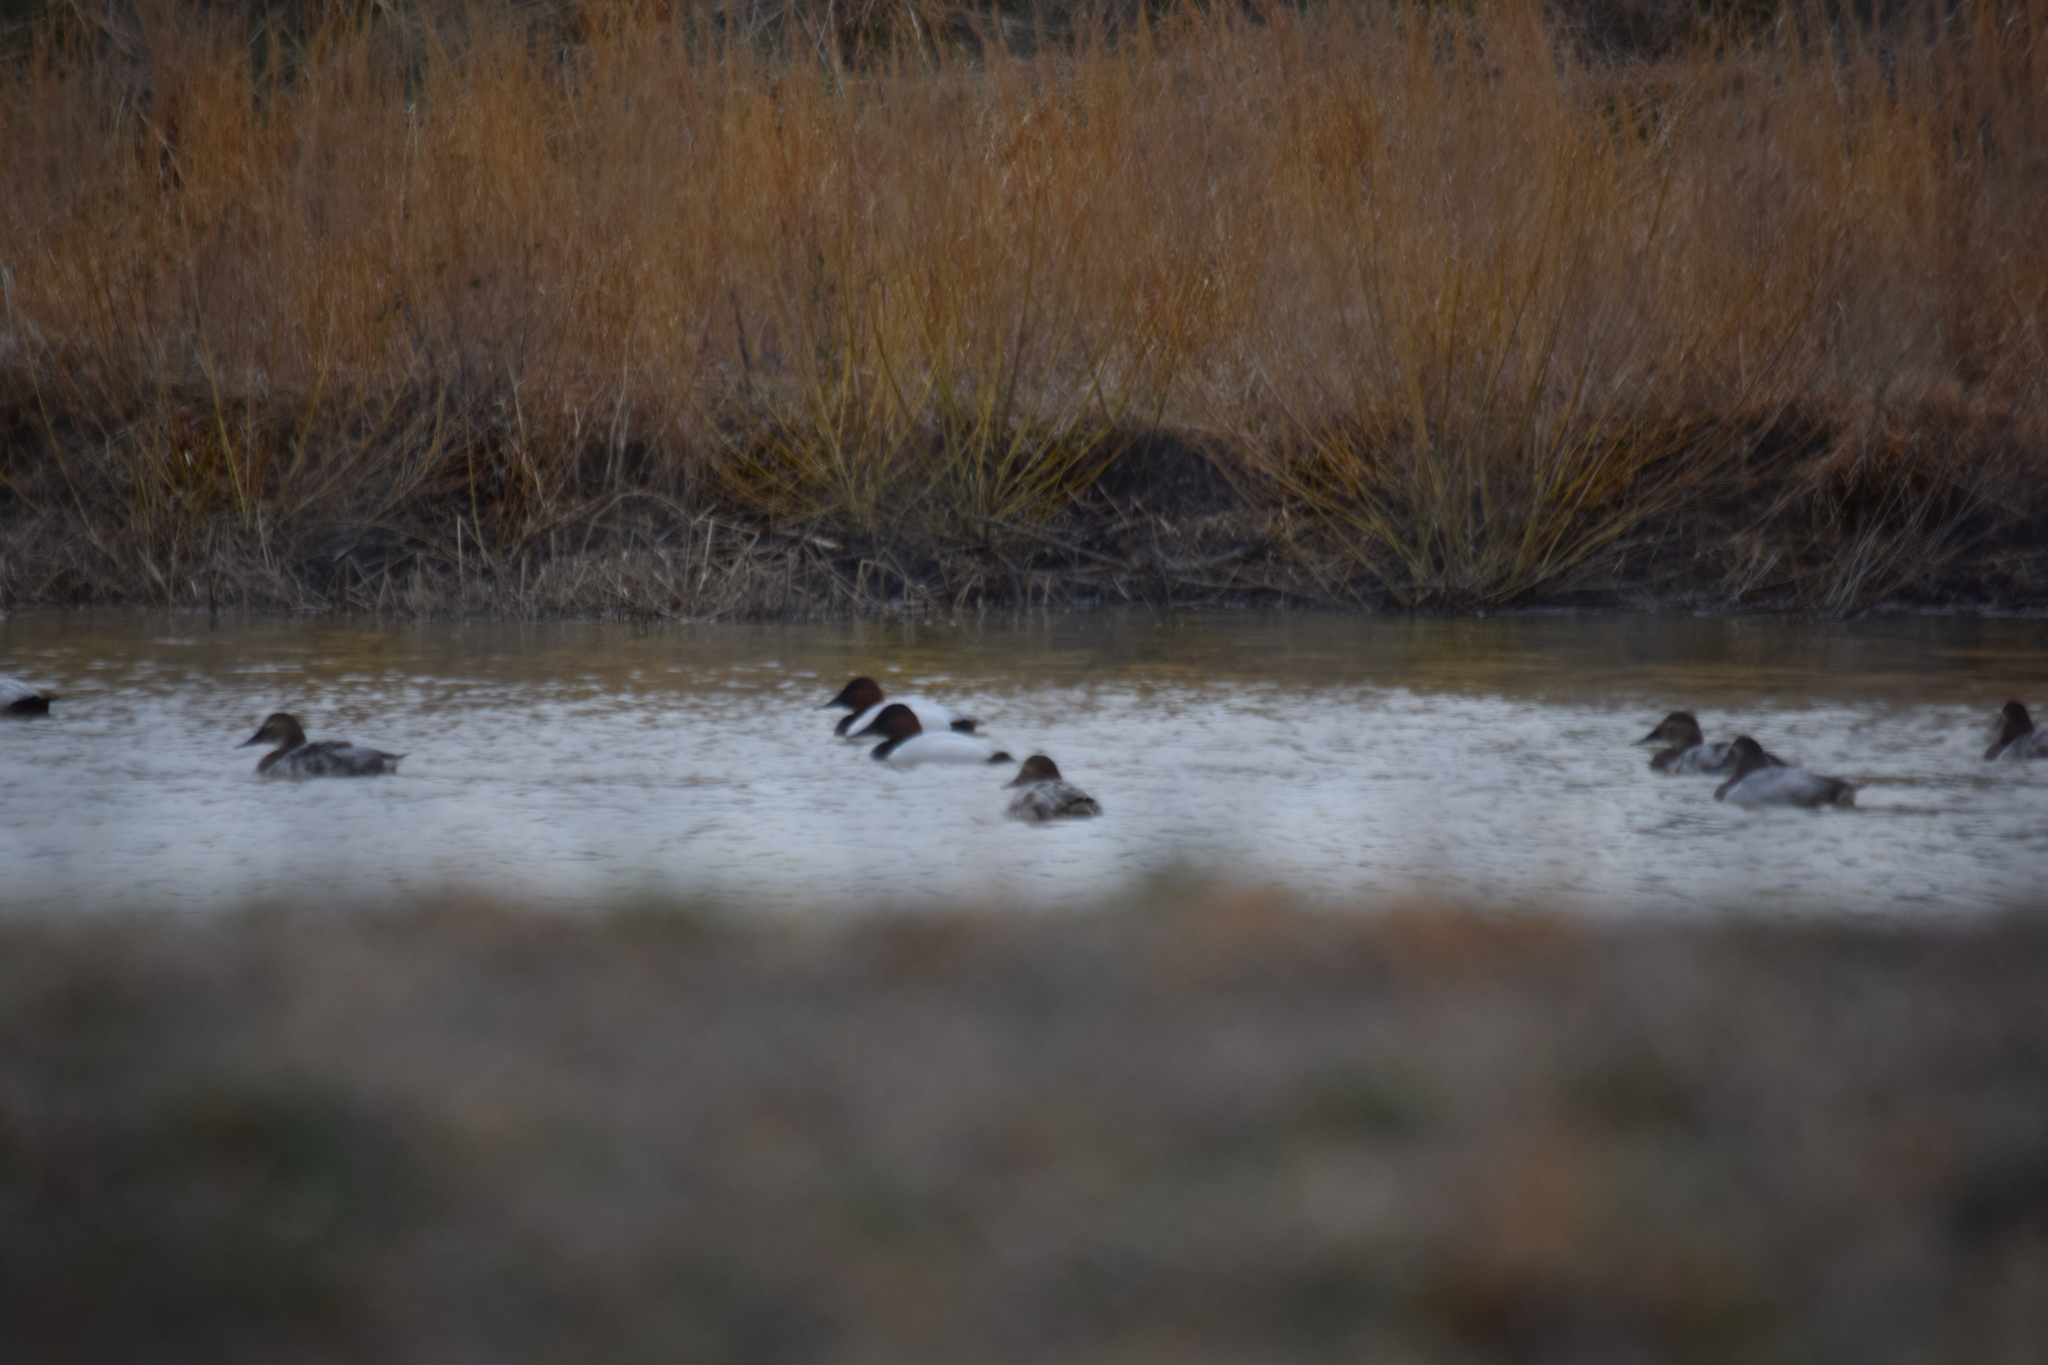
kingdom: Animalia
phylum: Chordata
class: Aves
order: Anseriformes
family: Anatidae
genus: Aythya
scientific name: Aythya valisineria
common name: Canvasback
